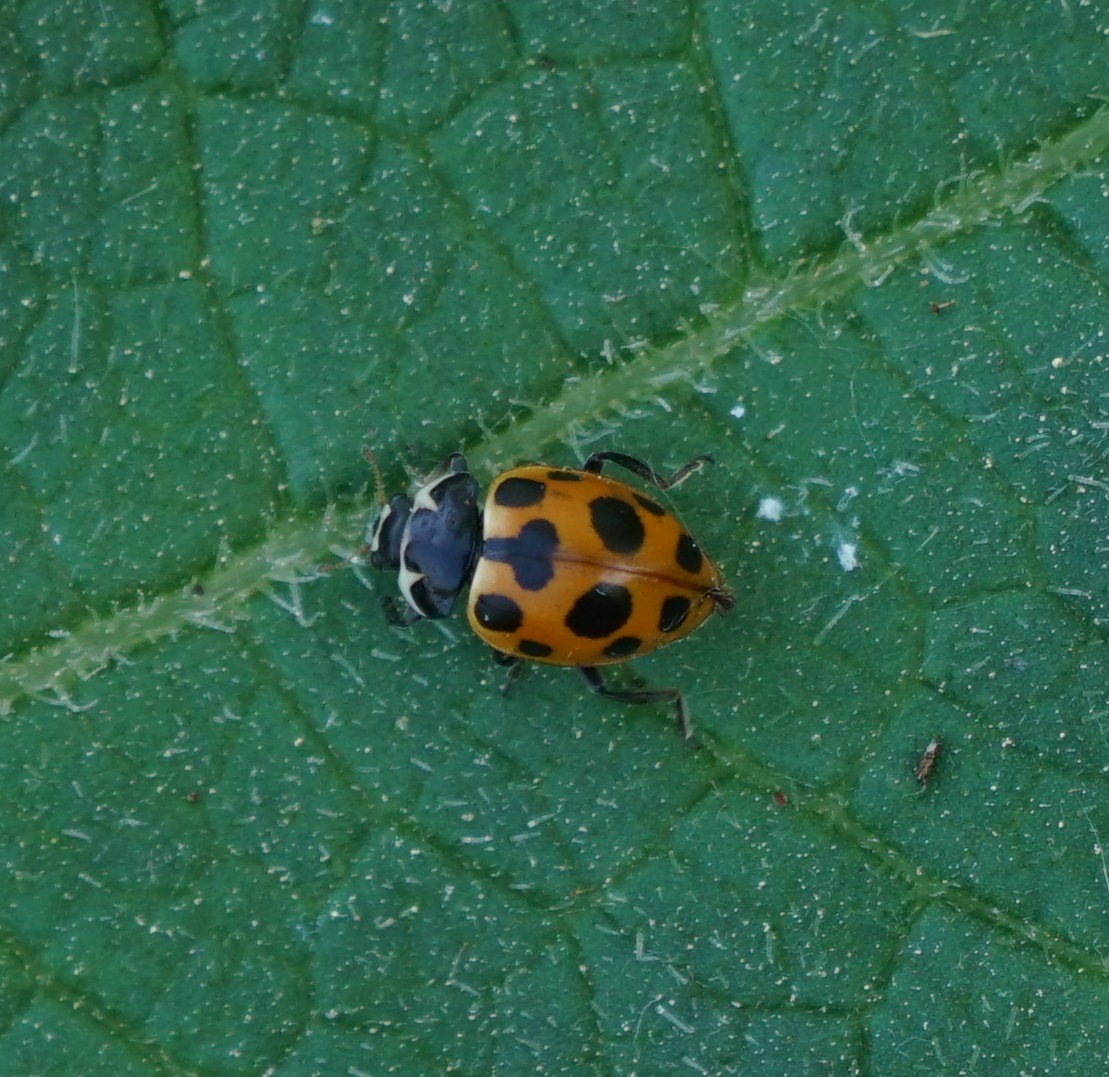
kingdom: Animalia
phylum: Arthropoda
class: Insecta
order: Coleoptera
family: Coccinellidae
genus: Ceratomegilla
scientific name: Ceratomegilla notata
